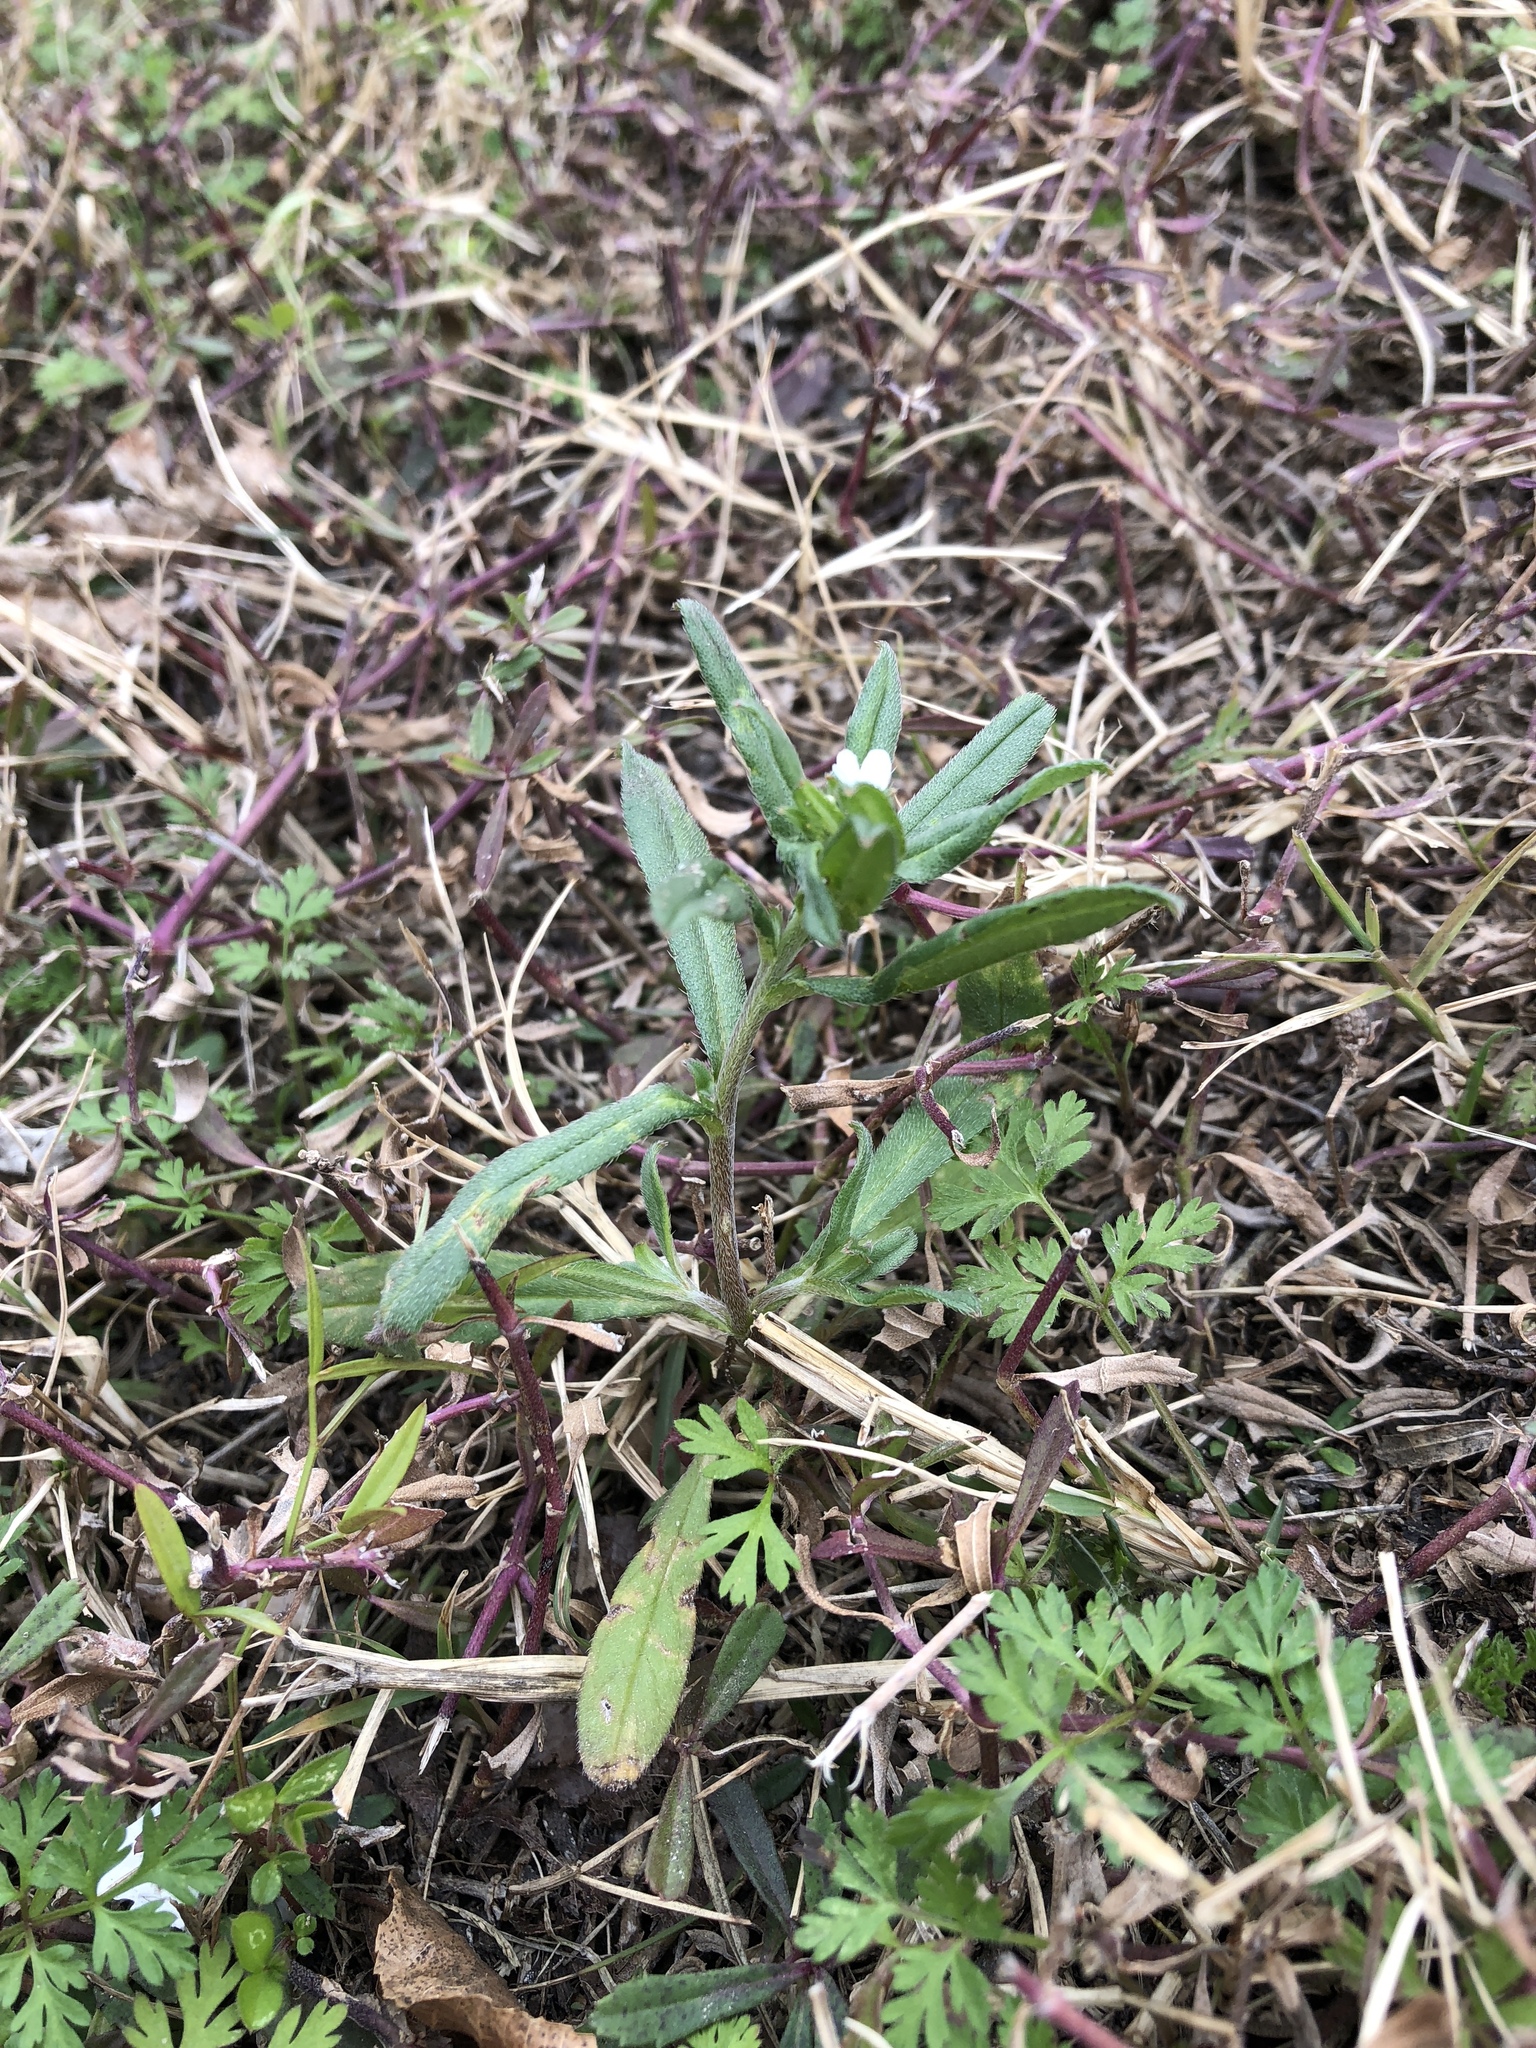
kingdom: Plantae
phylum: Tracheophyta
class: Magnoliopsida
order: Boraginales
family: Boraginaceae
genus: Buglossoides
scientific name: Buglossoides arvensis
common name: Corn gromwell
